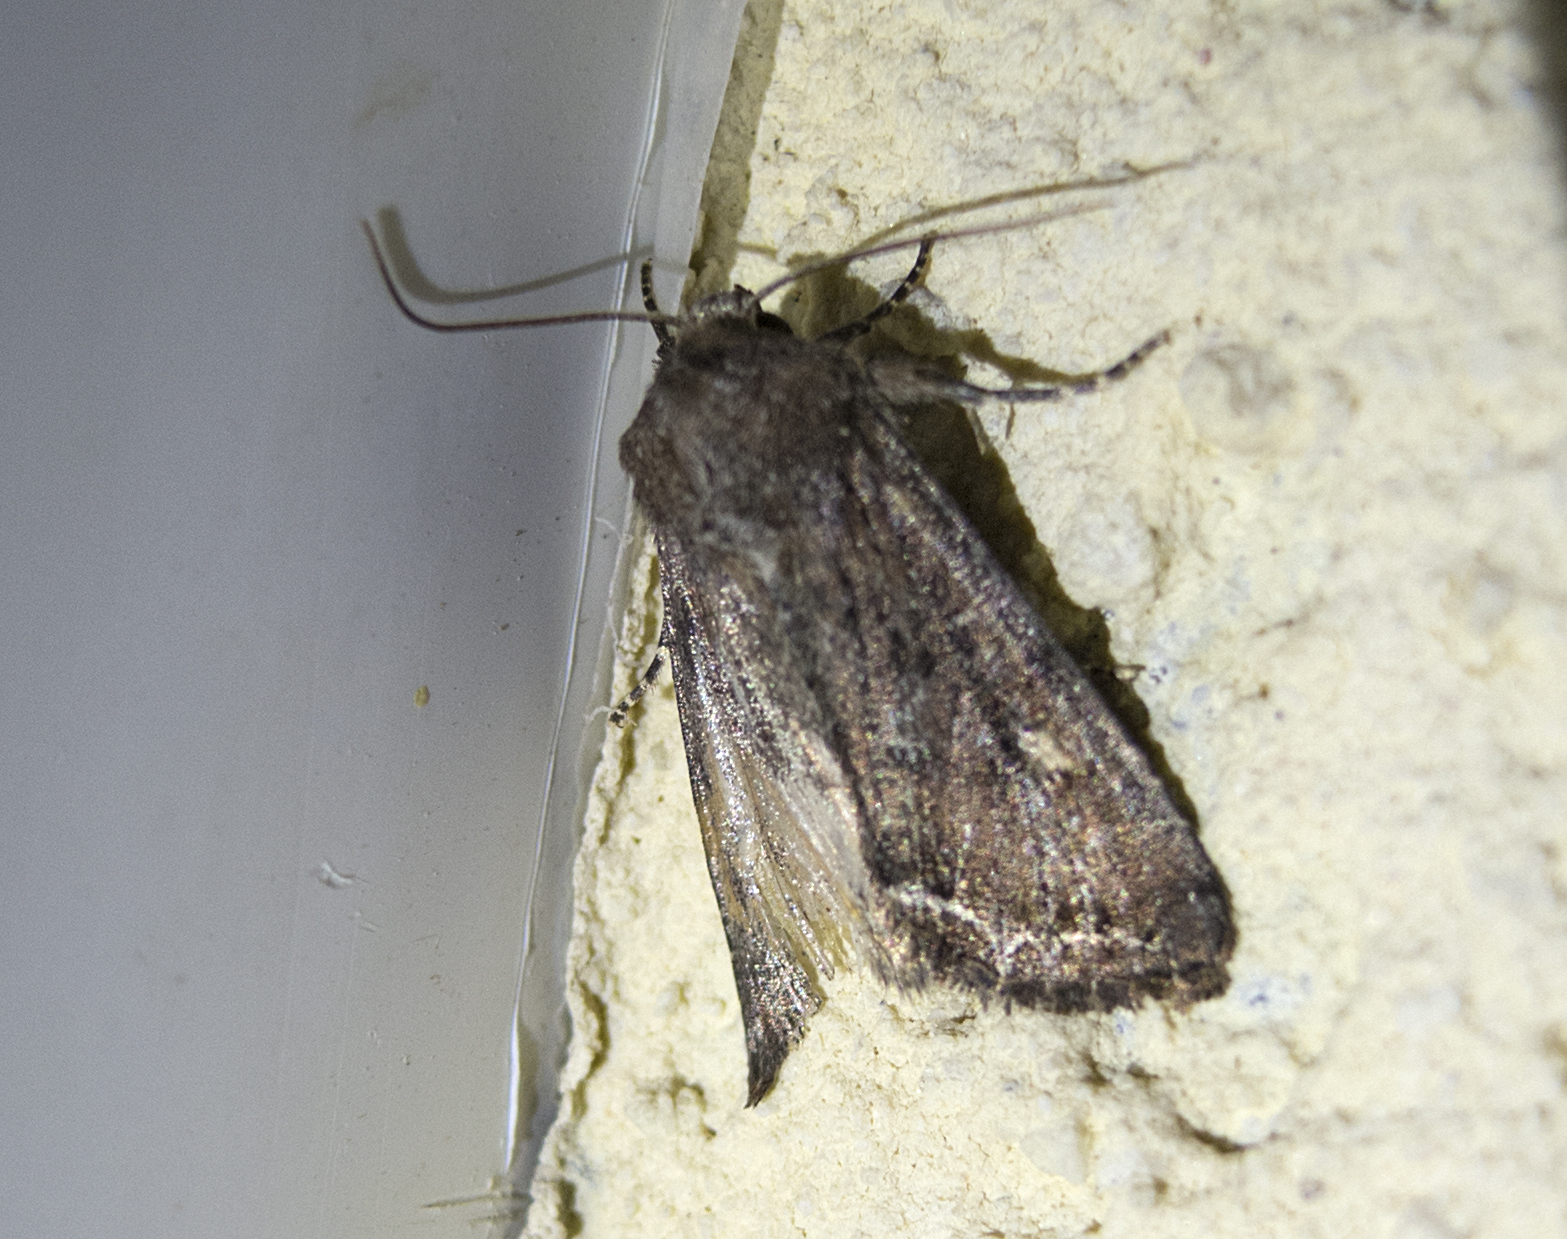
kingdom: Animalia
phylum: Arthropoda
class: Insecta
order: Lepidoptera
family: Noctuidae
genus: Lacanobia
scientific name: Lacanobia oleracea
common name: Bright-line brown-eye
